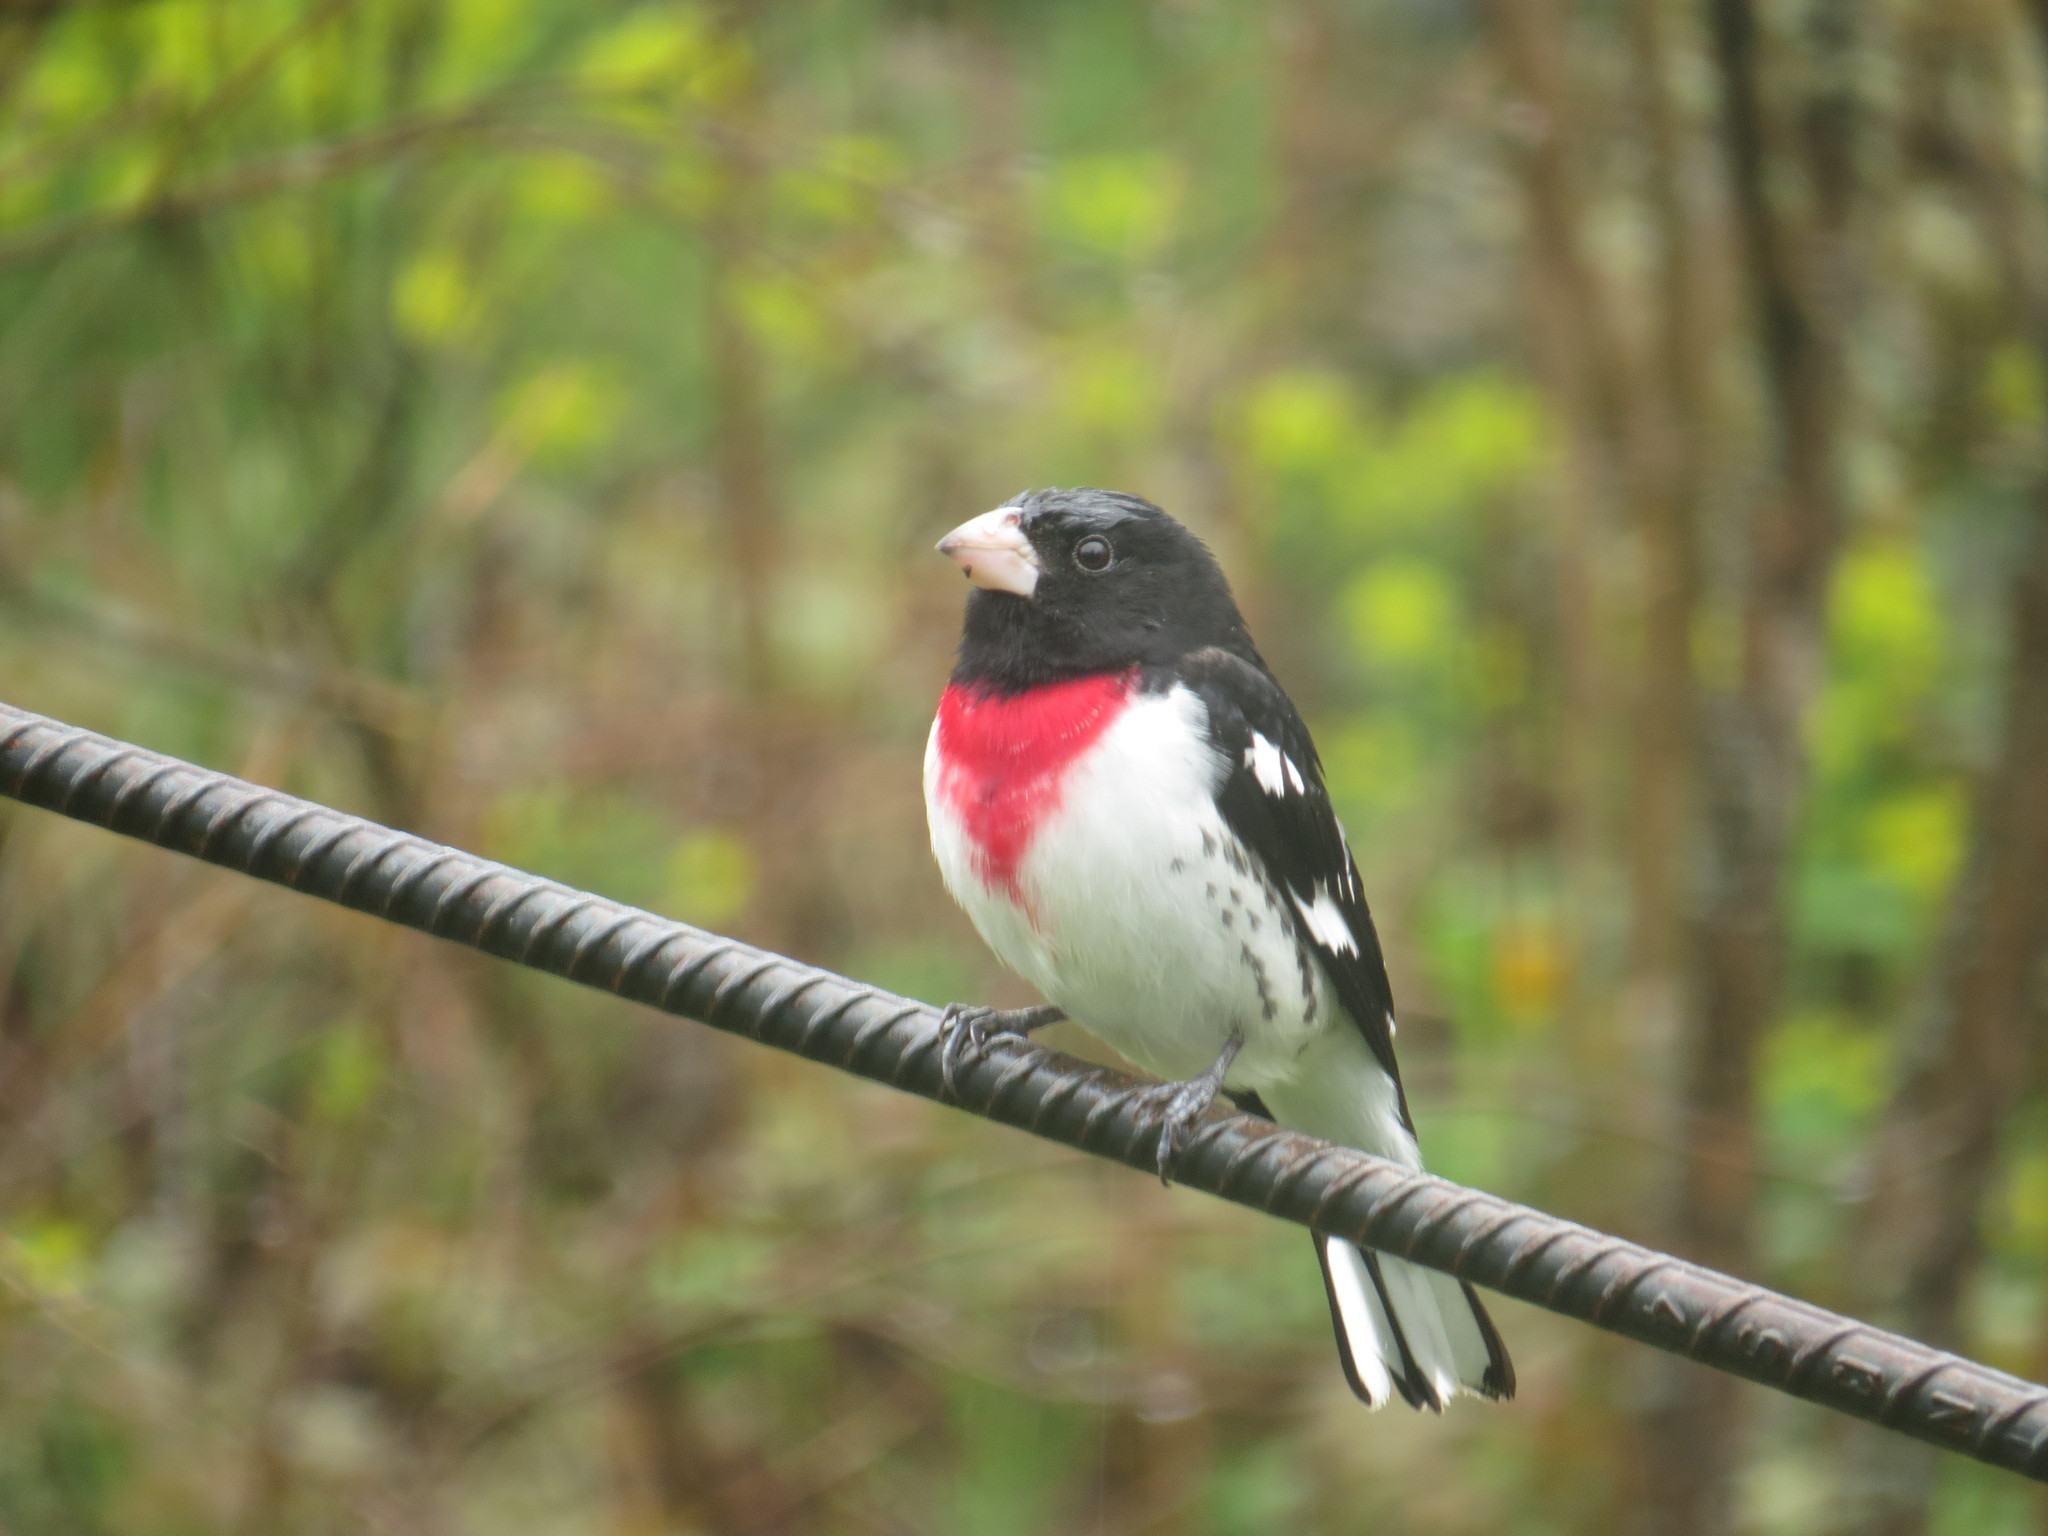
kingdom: Animalia
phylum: Chordata
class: Aves
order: Passeriformes
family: Cardinalidae
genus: Pheucticus
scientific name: Pheucticus ludovicianus
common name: Rose-breasted grosbeak
